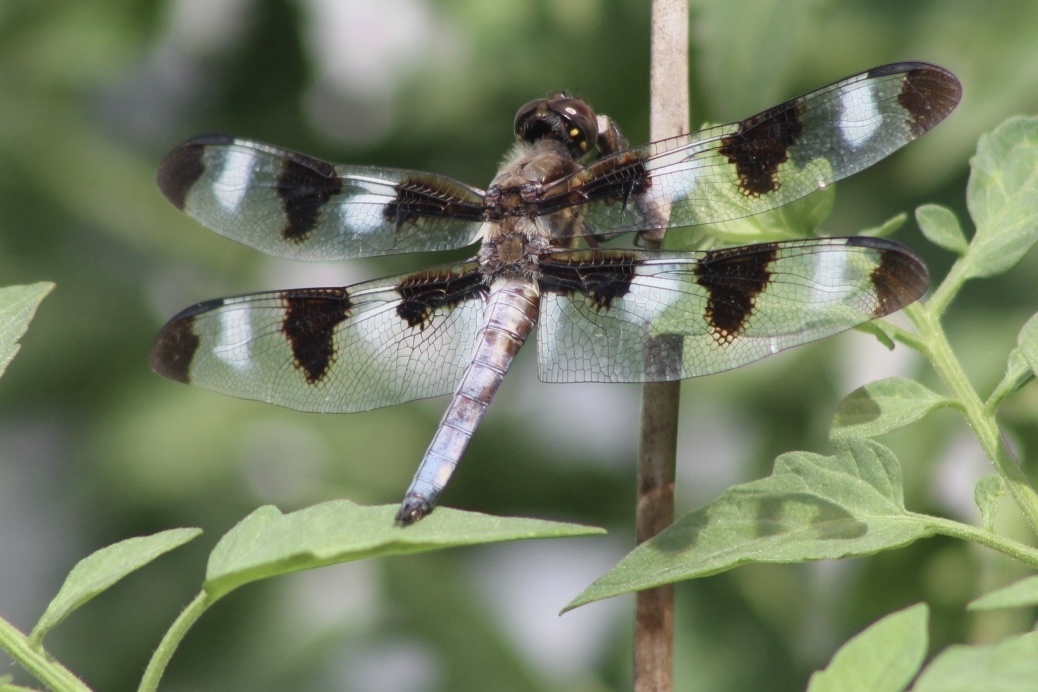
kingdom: Animalia
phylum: Arthropoda
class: Insecta
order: Odonata
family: Libellulidae
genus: Libellula
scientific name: Libellula pulchella
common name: Twelve-spotted skimmer
